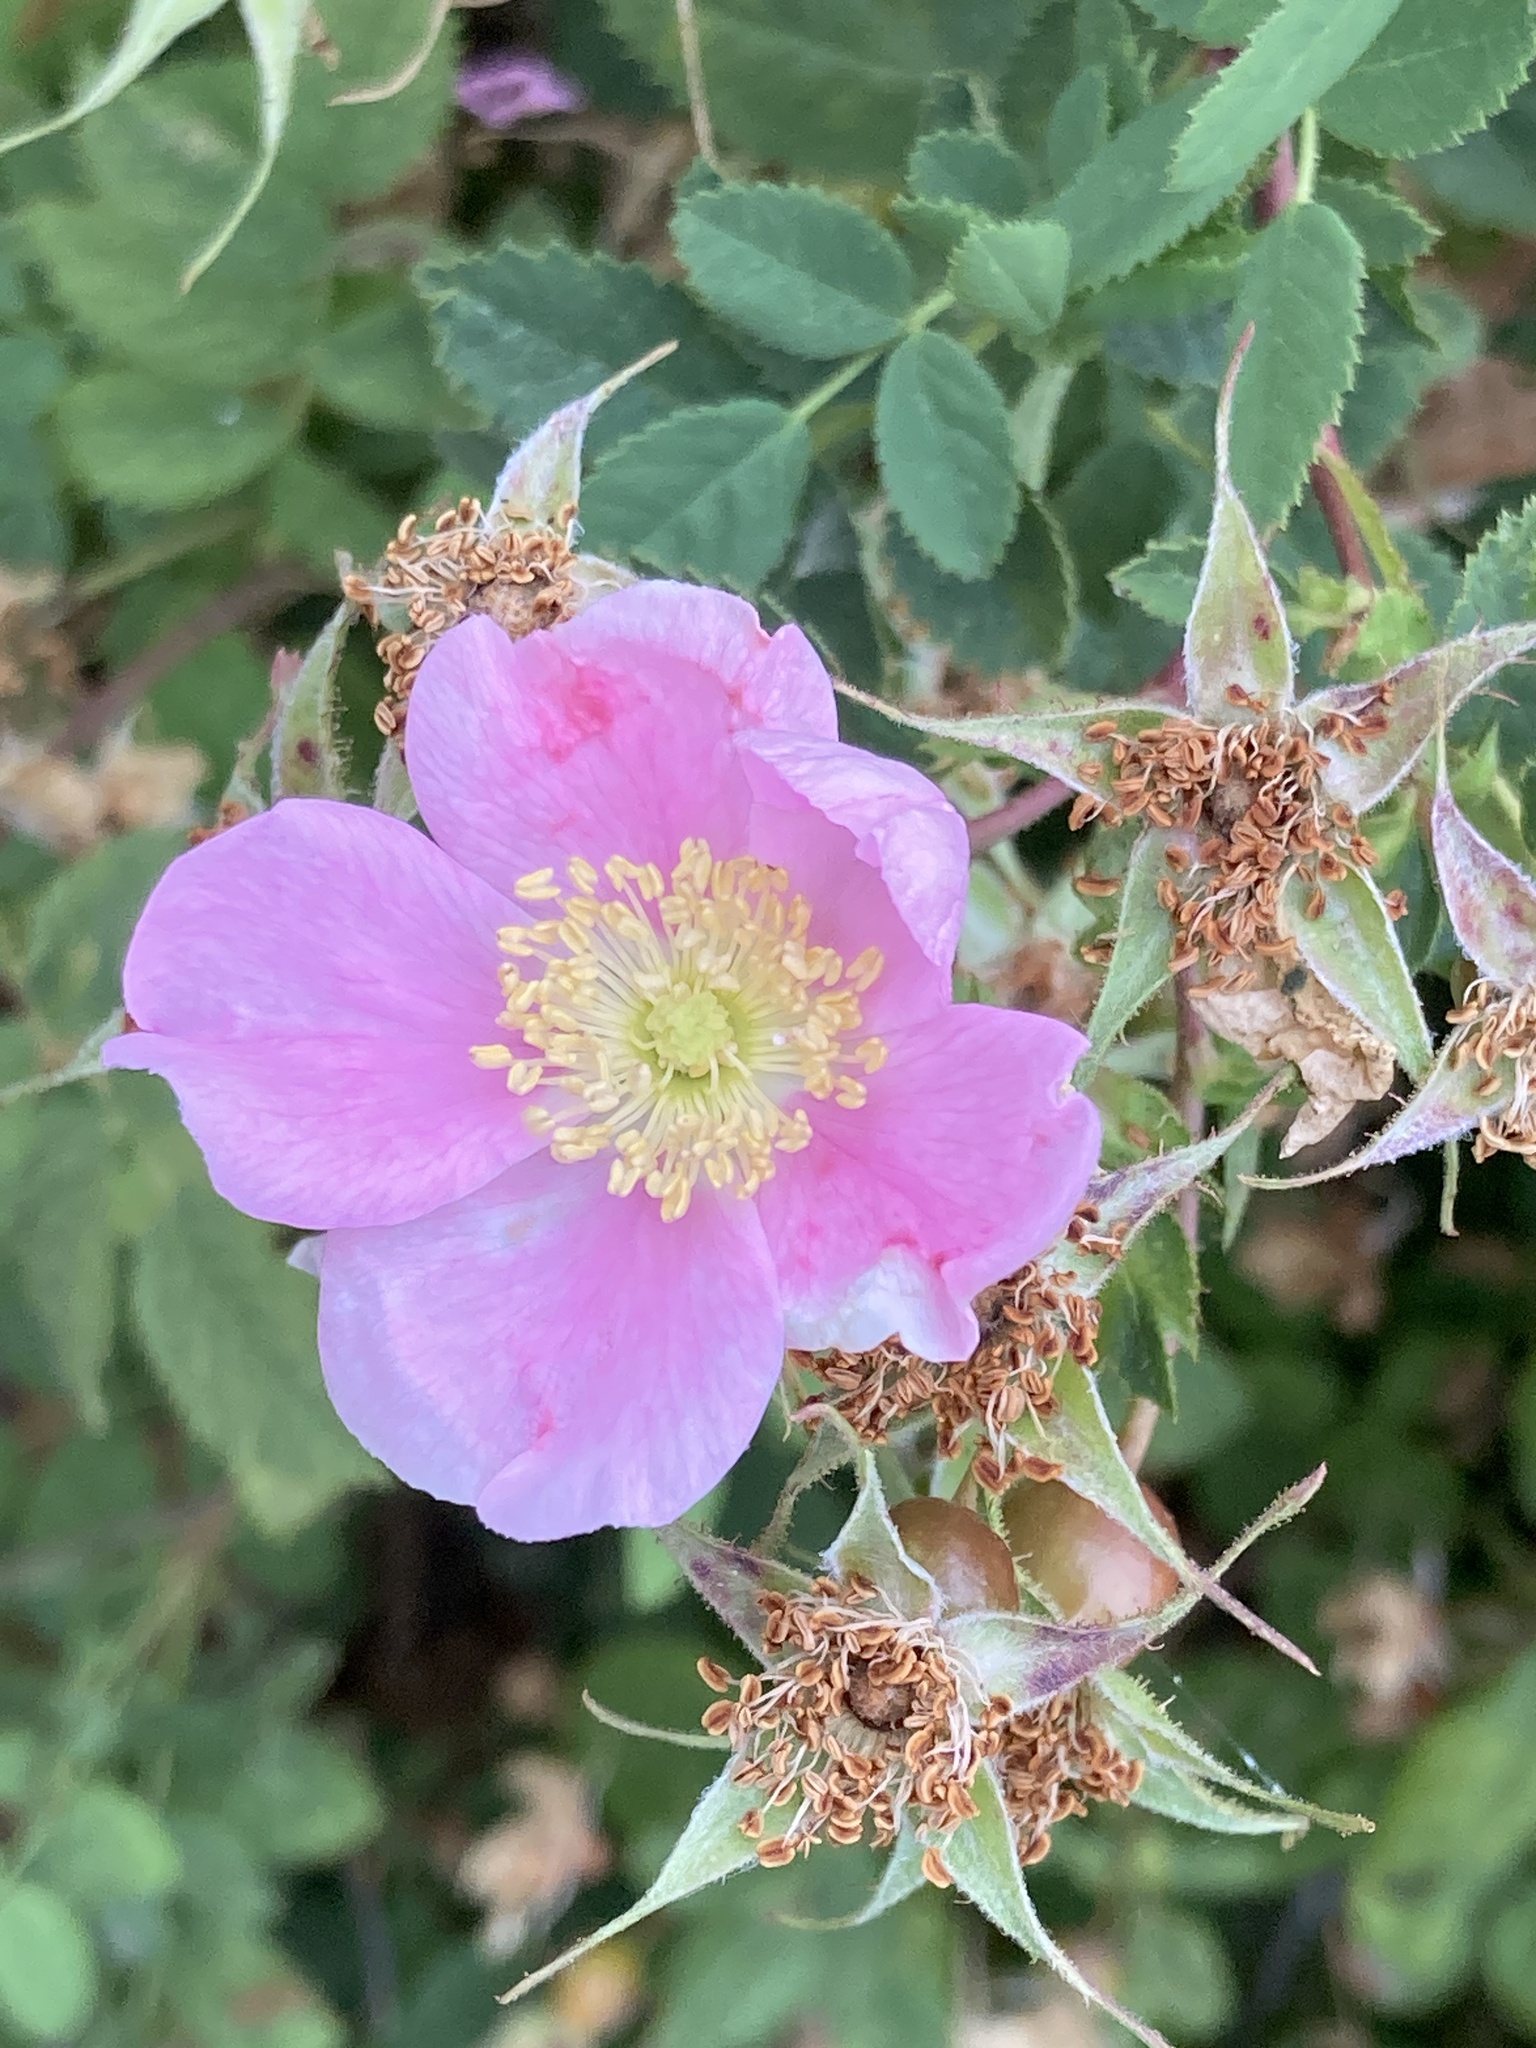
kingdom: Plantae
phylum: Tracheophyta
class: Magnoliopsida
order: Rosales
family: Rosaceae
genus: Rosa
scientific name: Rosa californica
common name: California rose
